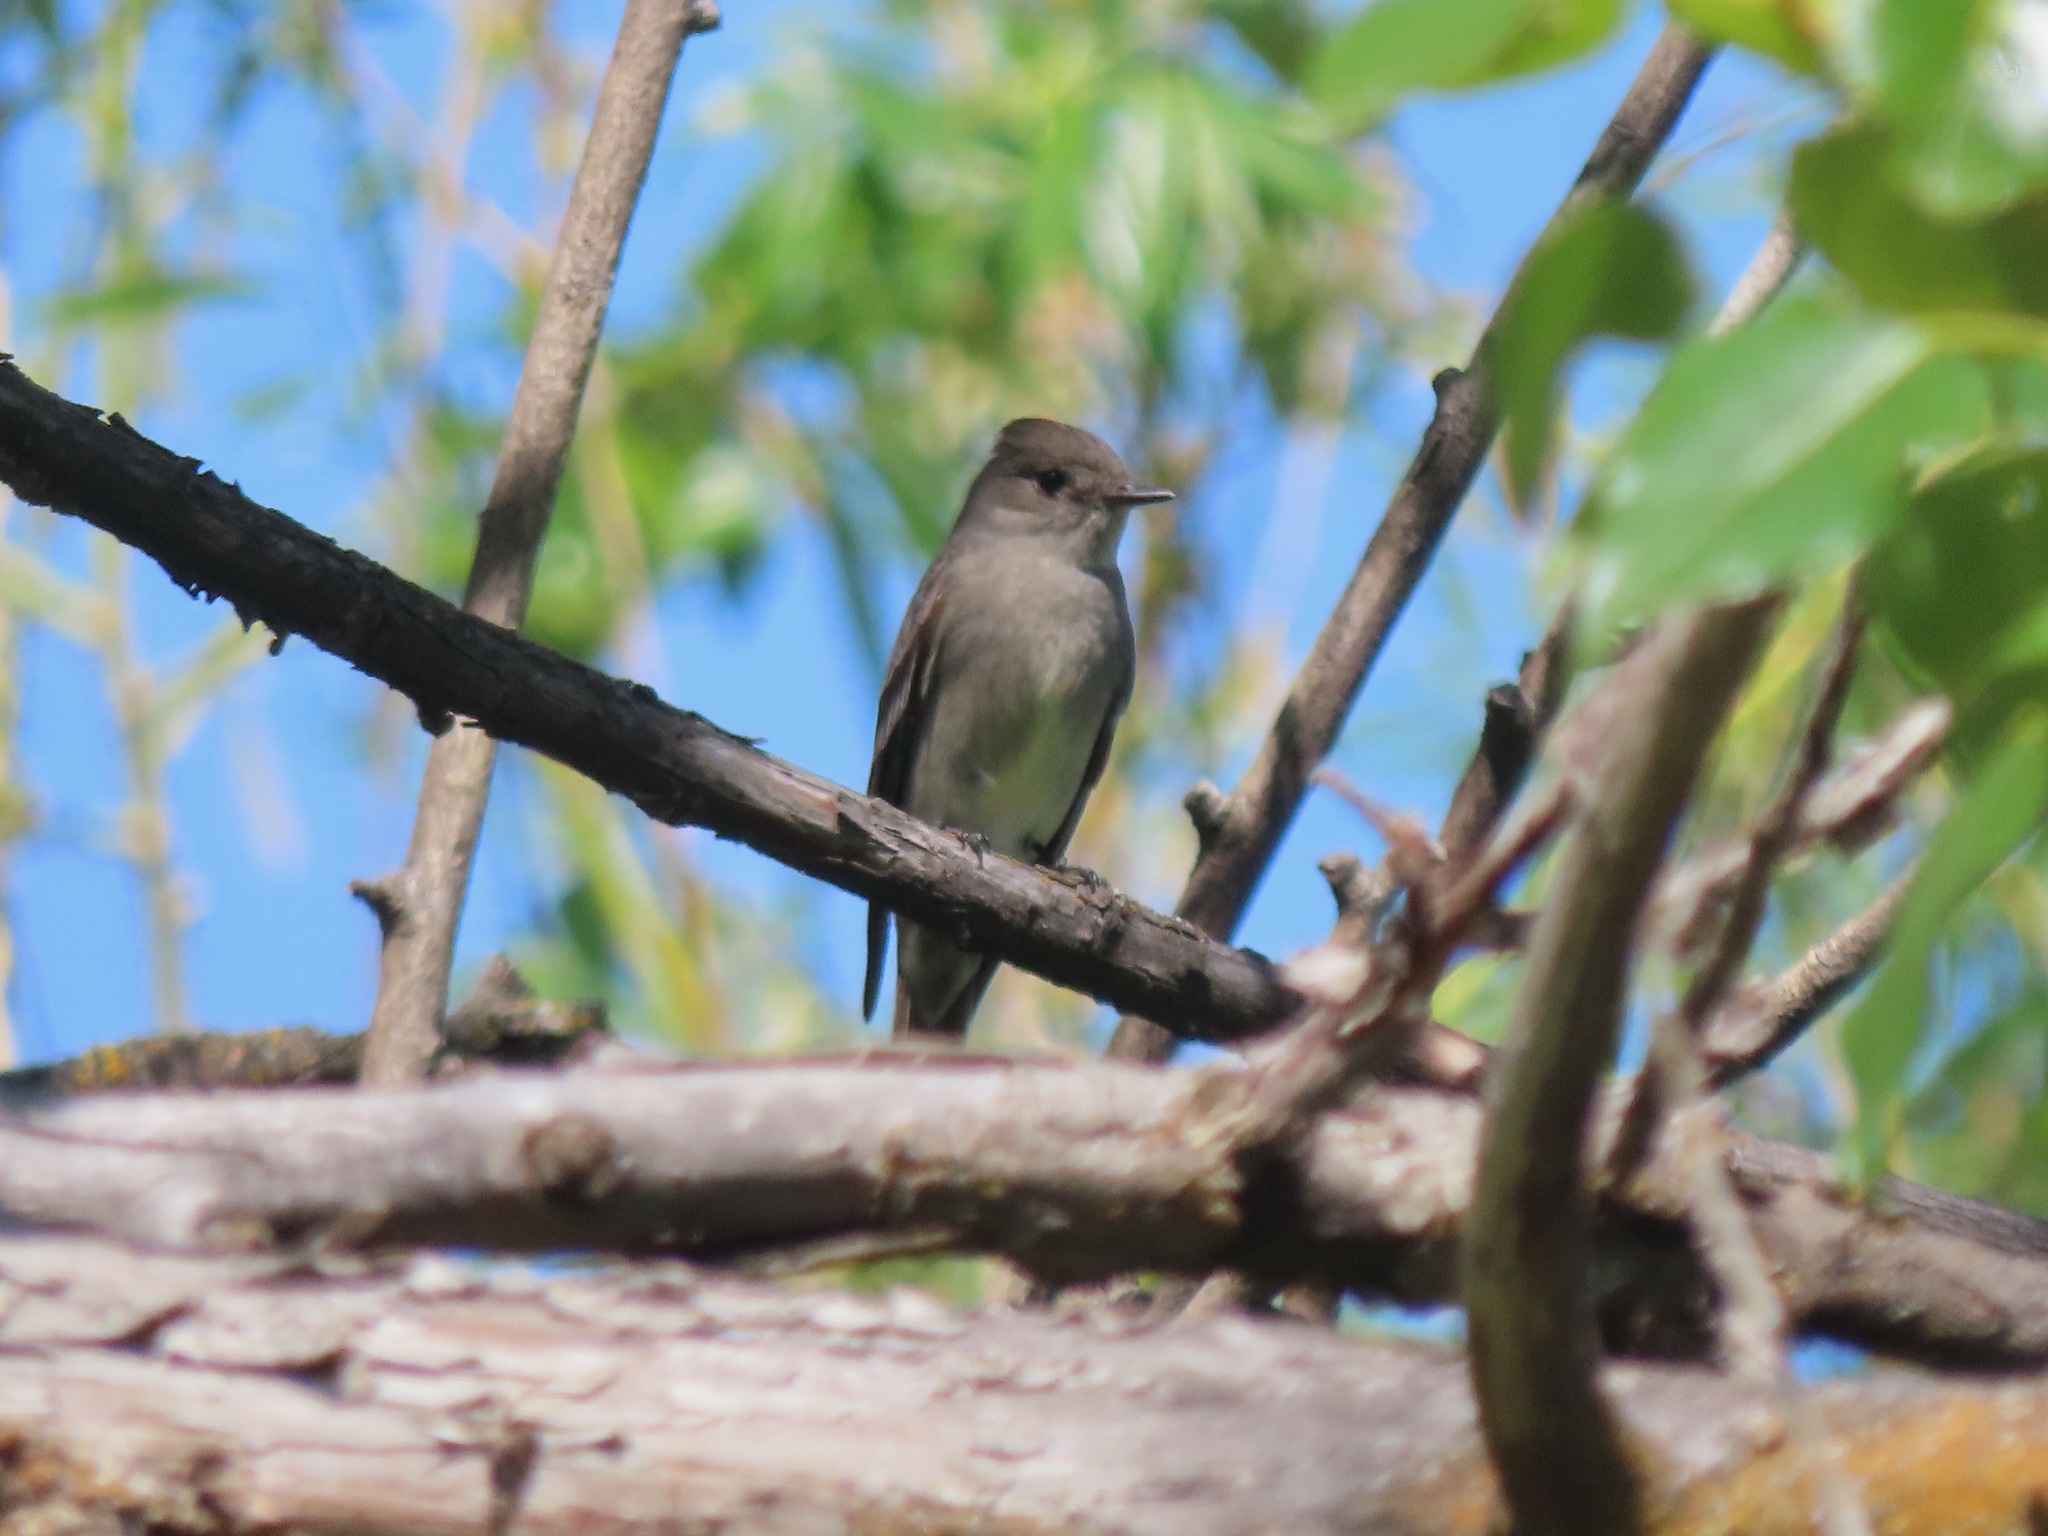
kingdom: Animalia
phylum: Chordata
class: Aves
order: Passeriformes
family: Tyrannidae
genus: Contopus
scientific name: Contopus sordidulus
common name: Western wood-pewee
